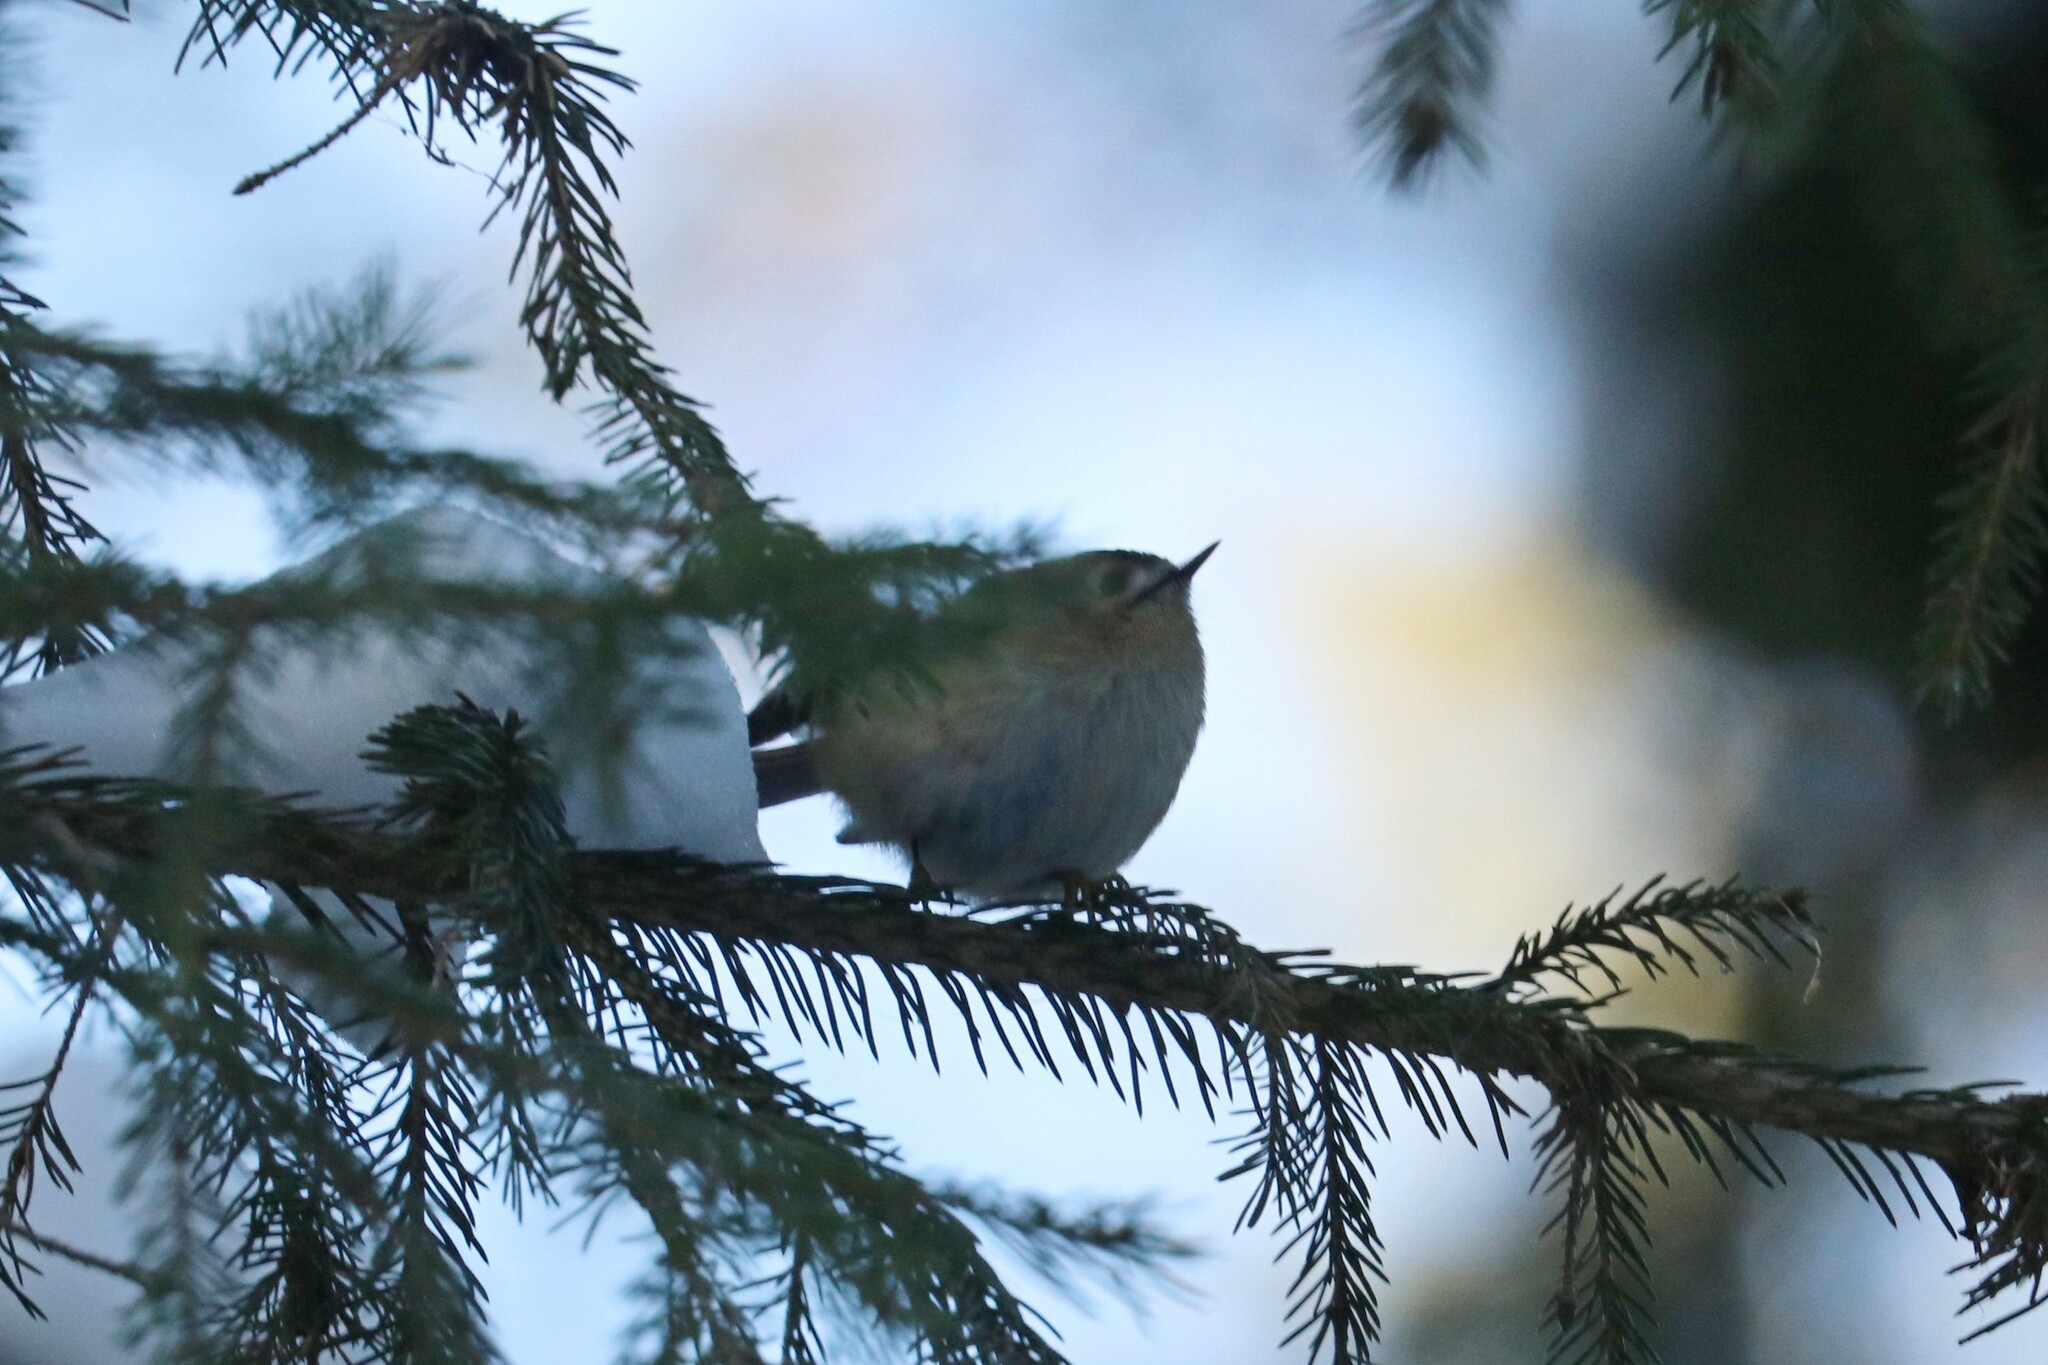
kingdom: Animalia
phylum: Chordata
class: Aves
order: Passeriformes
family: Regulidae
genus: Regulus
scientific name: Regulus regulus
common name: Goldcrest
